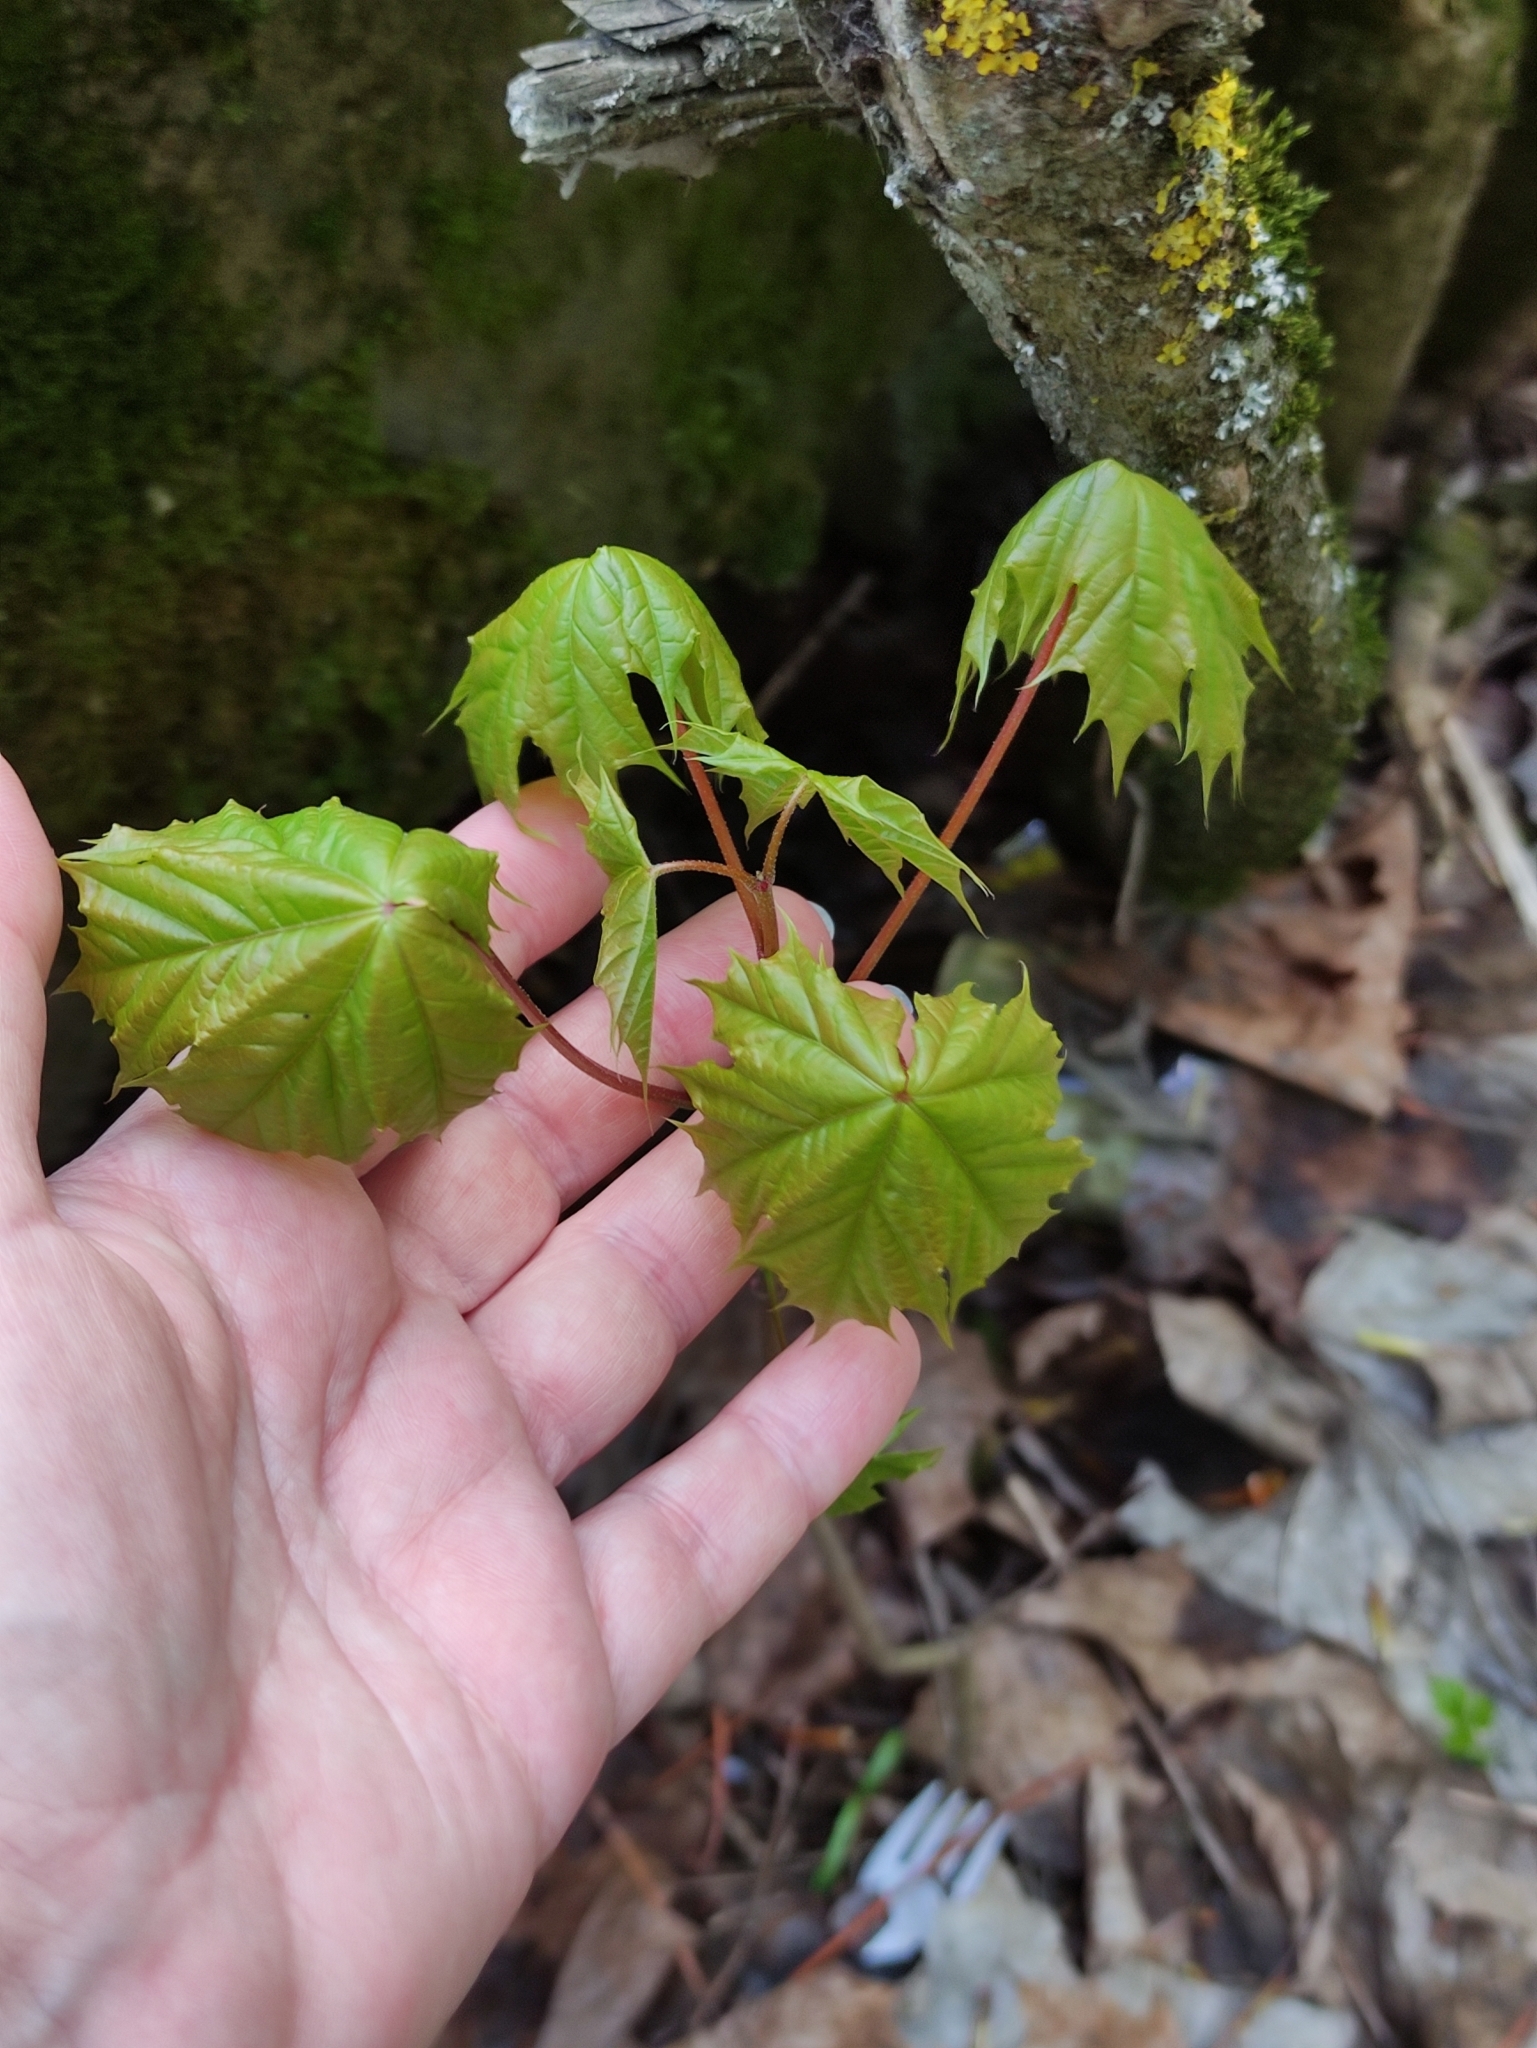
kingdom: Plantae
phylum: Tracheophyta
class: Magnoliopsida
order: Sapindales
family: Sapindaceae
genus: Acer
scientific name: Acer platanoides
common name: Norway maple
